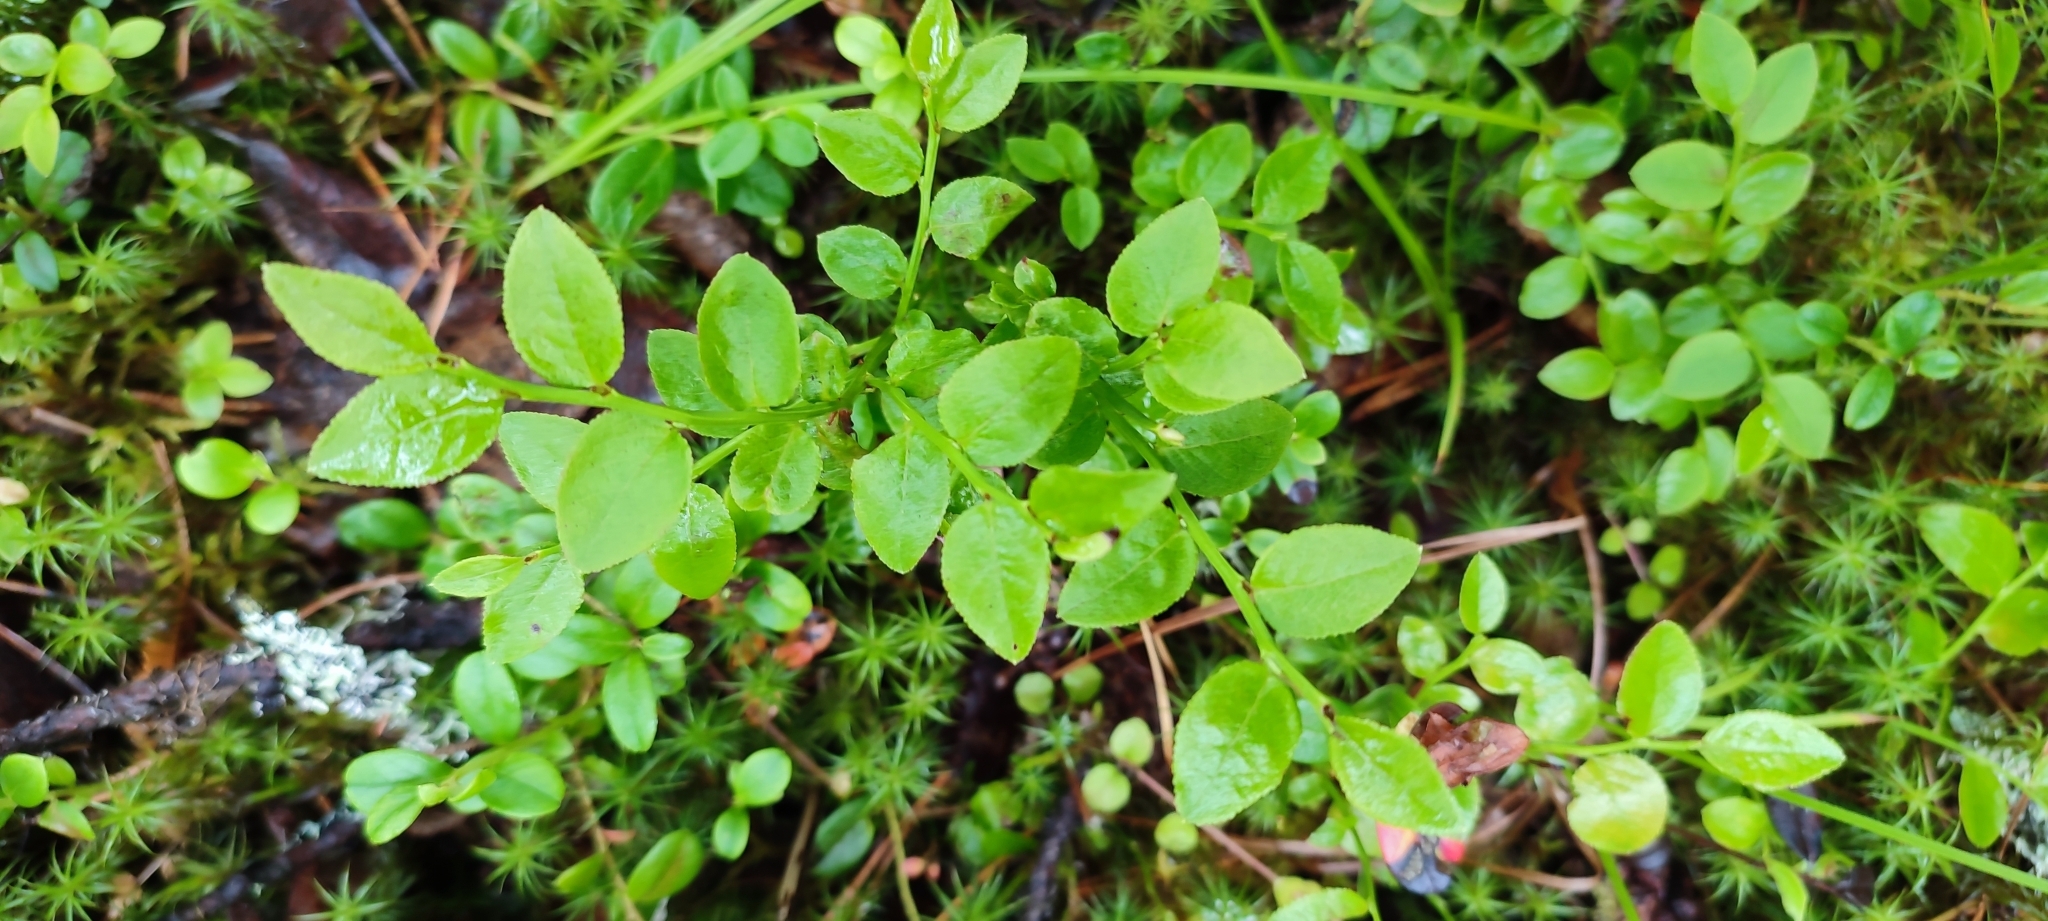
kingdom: Plantae
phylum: Tracheophyta
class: Magnoliopsida
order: Ericales
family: Ericaceae
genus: Vaccinium
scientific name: Vaccinium myrtillus
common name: Bilberry
